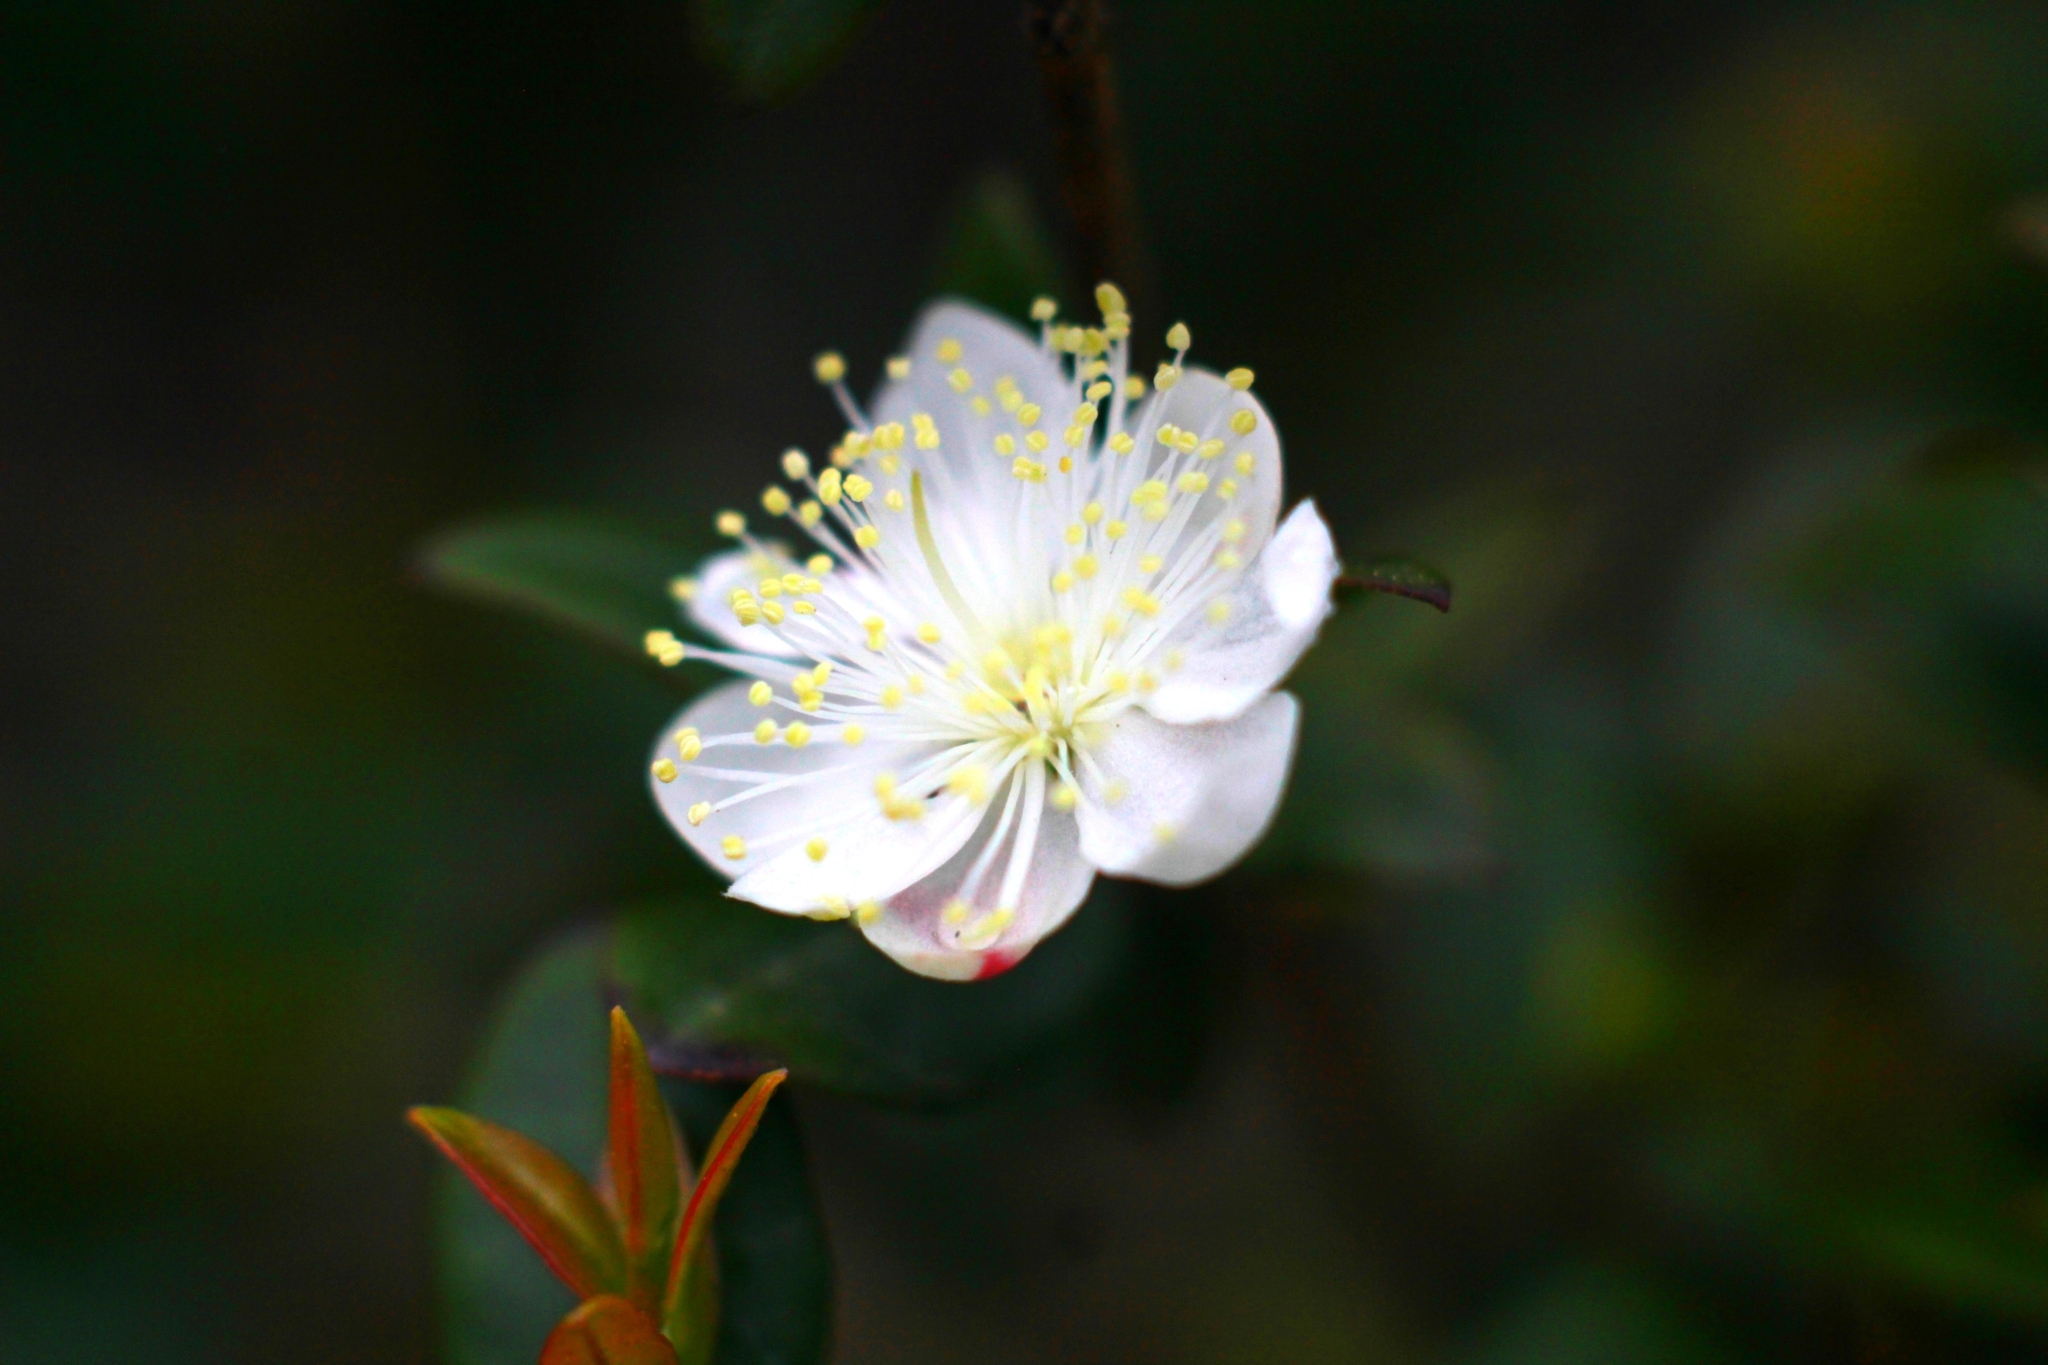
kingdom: Plantae
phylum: Tracheophyta
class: Magnoliopsida
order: Myrtales
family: Myrtaceae
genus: Myrtus
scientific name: Myrtus communis
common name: Myrtle
